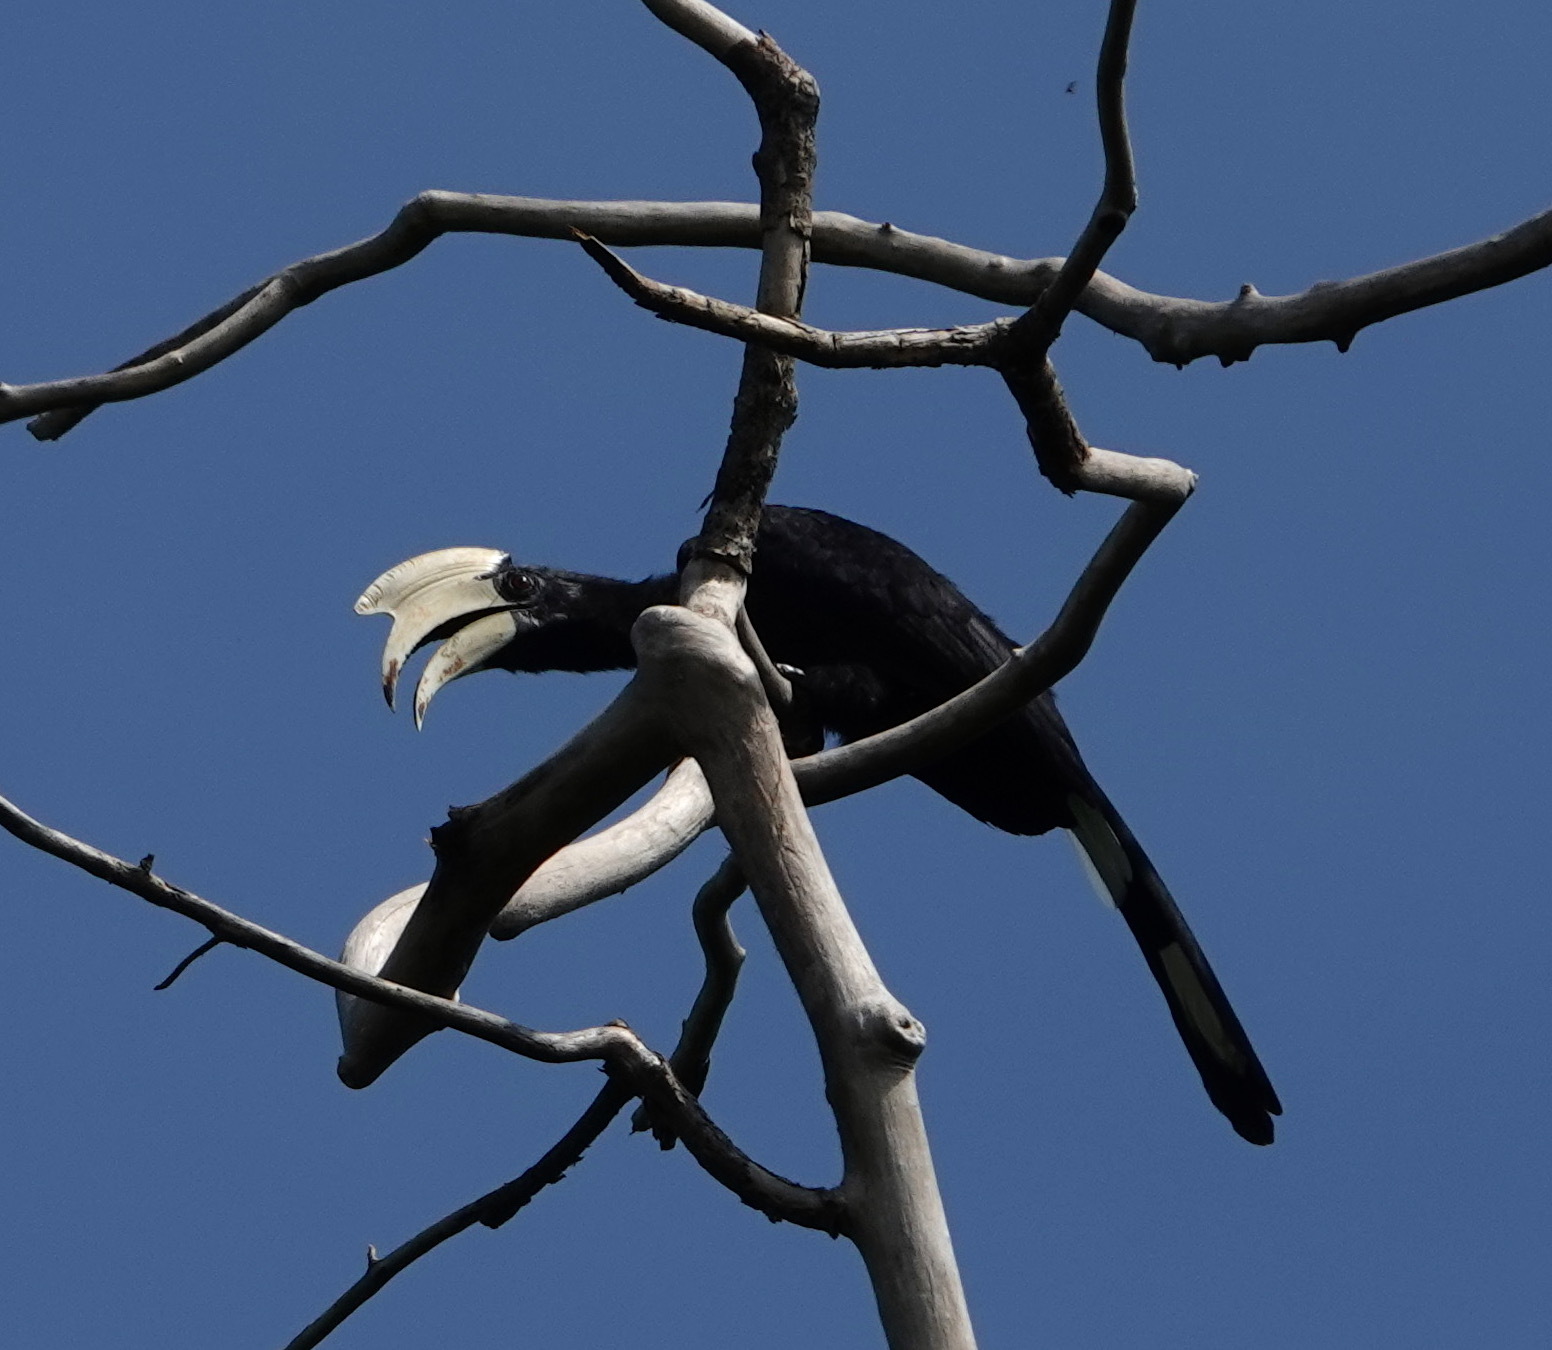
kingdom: Animalia
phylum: Chordata
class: Aves
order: Bucerotiformes
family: Bucerotidae
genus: Anthracoceros
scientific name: Anthracoceros malayanus
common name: Black hornbill
